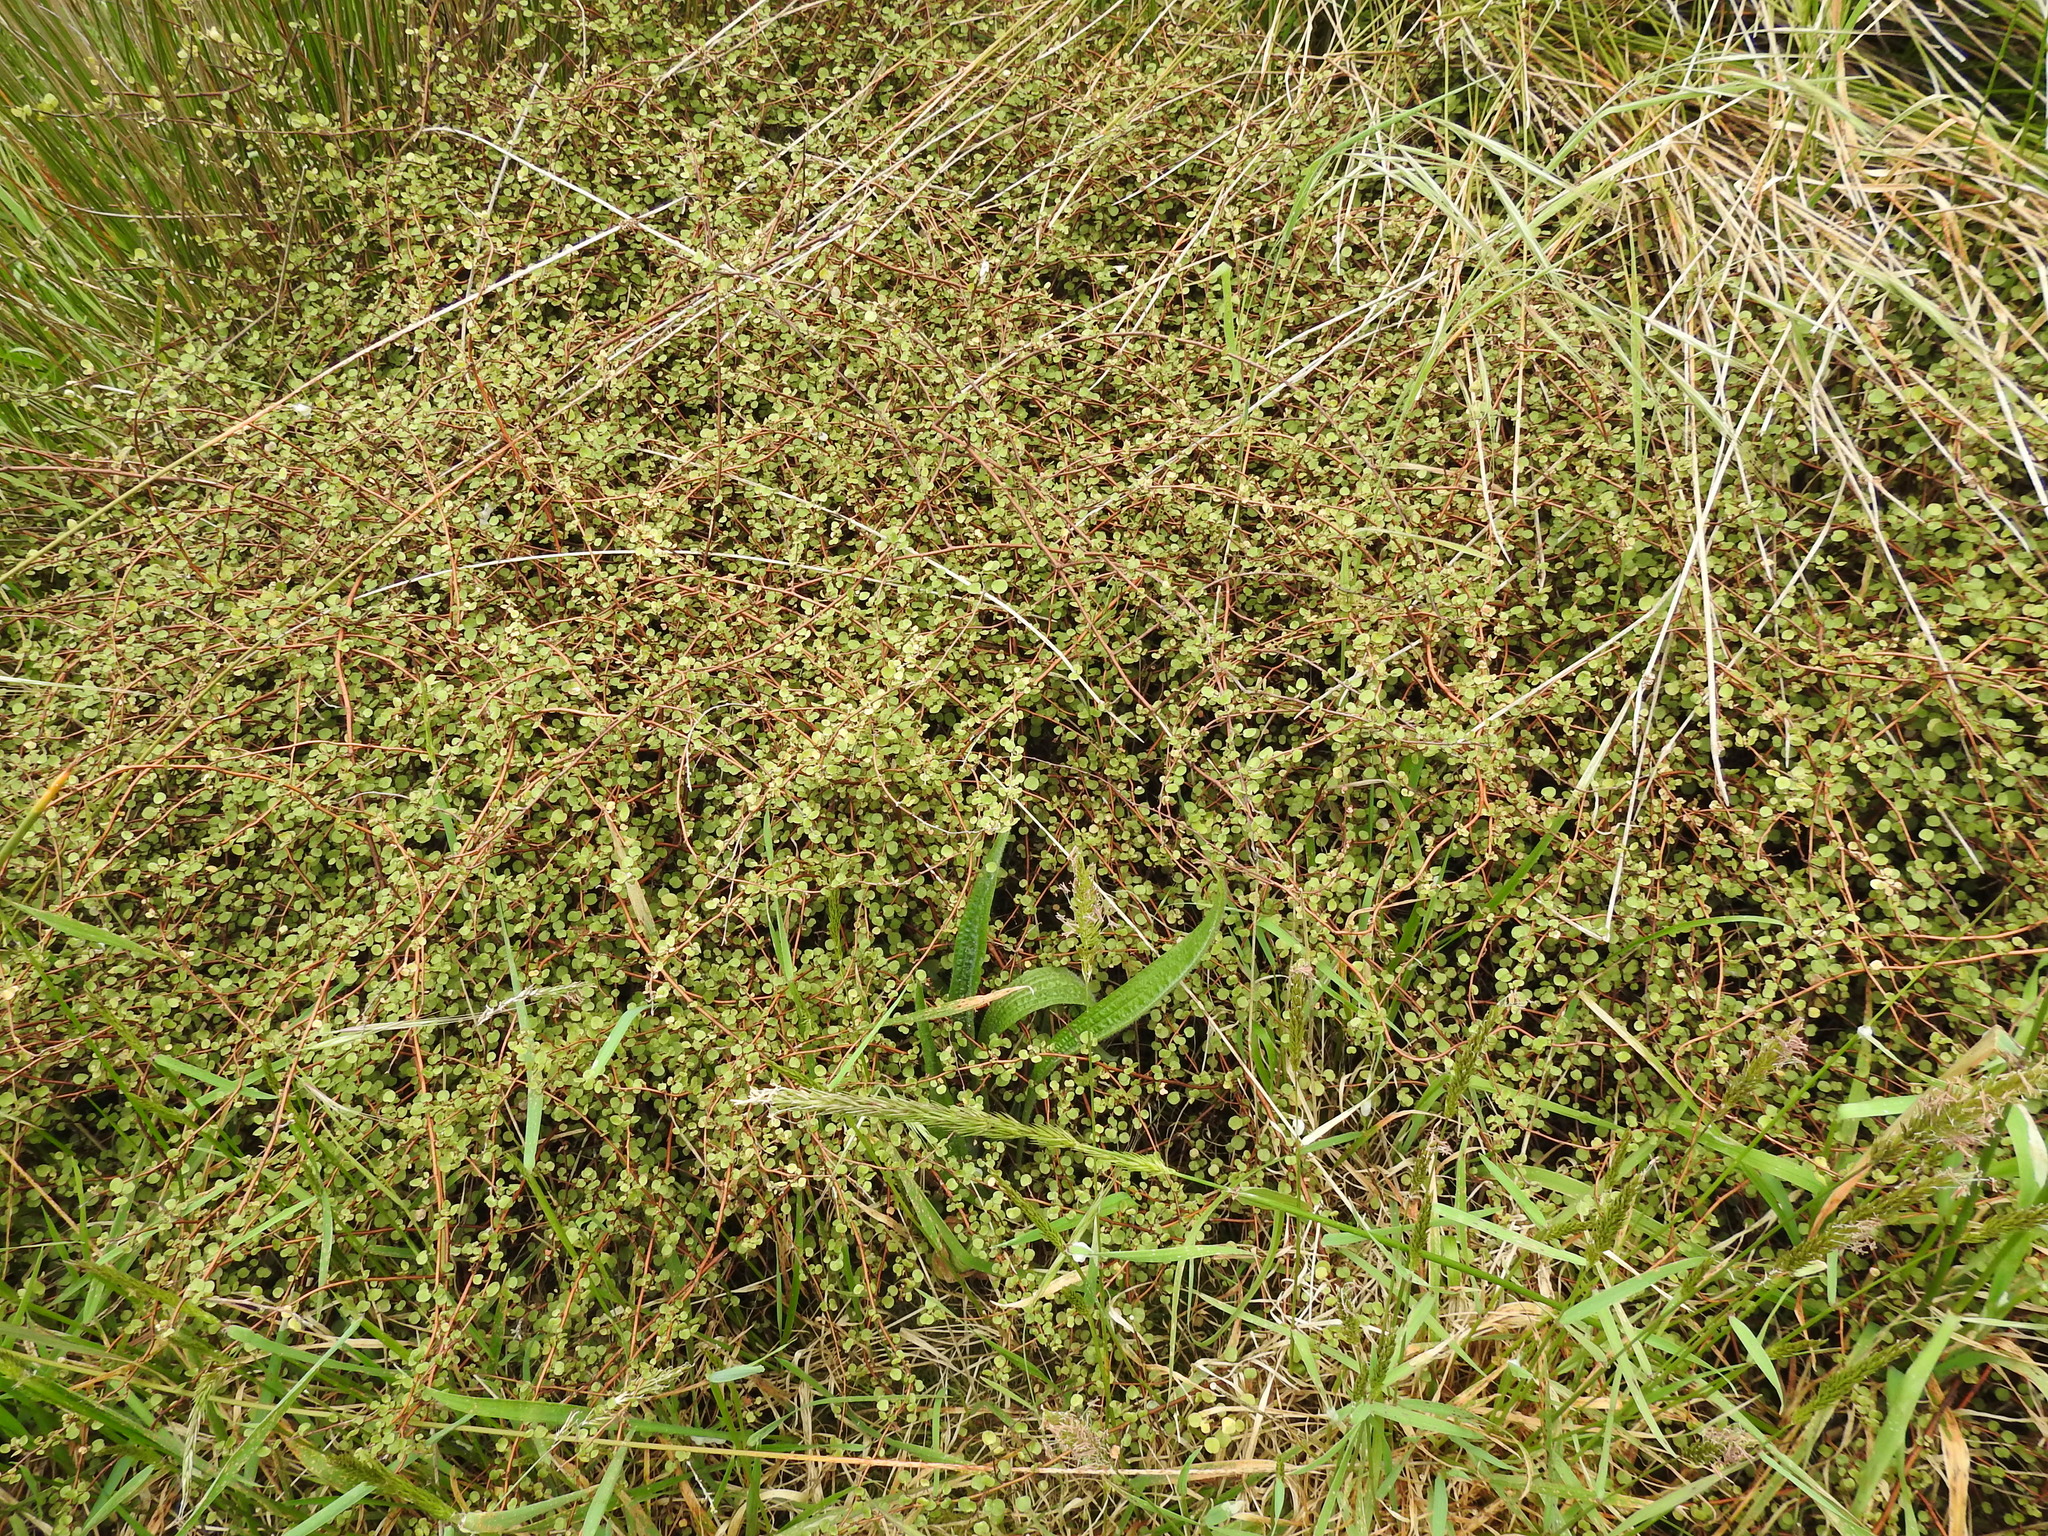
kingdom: Plantae
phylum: Tracheophyta
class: Magnoliopsida
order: Caryophyllales
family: Polygonaceae
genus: Muehlenbeckia
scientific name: Muehlenbeckia complexa
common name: Wireplant
